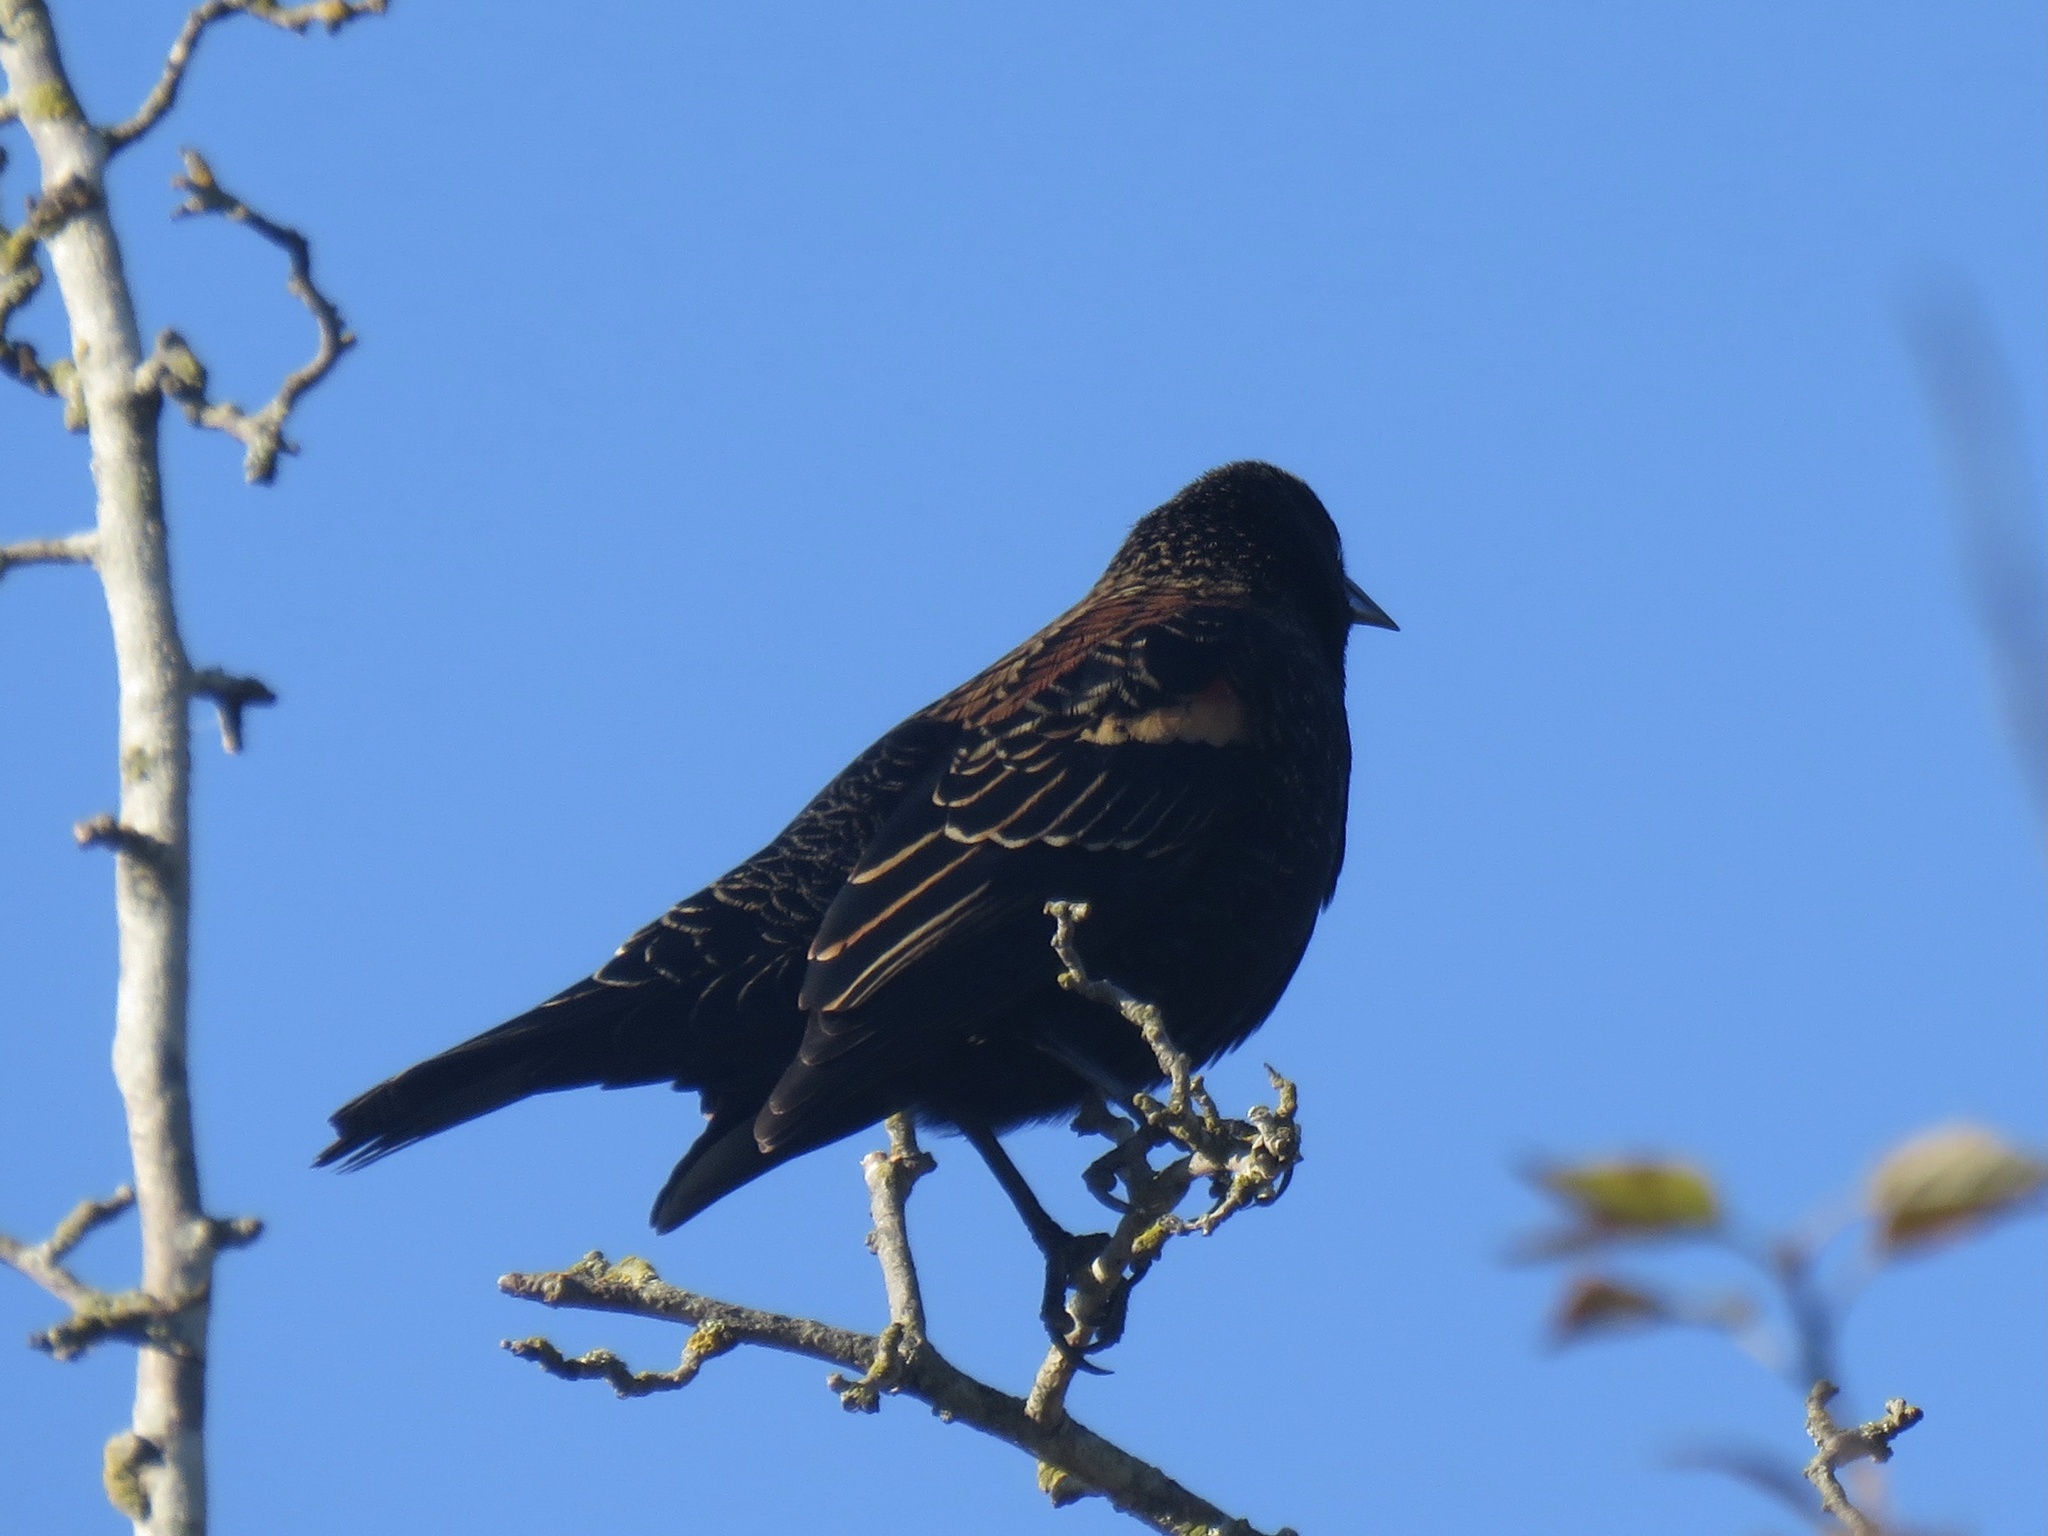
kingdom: Animalia
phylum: Chordata
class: Aves
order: Passeriformes
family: Icteridae
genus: Agelaius
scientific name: Agelaius phoeniceus
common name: Red-winged blackbird
